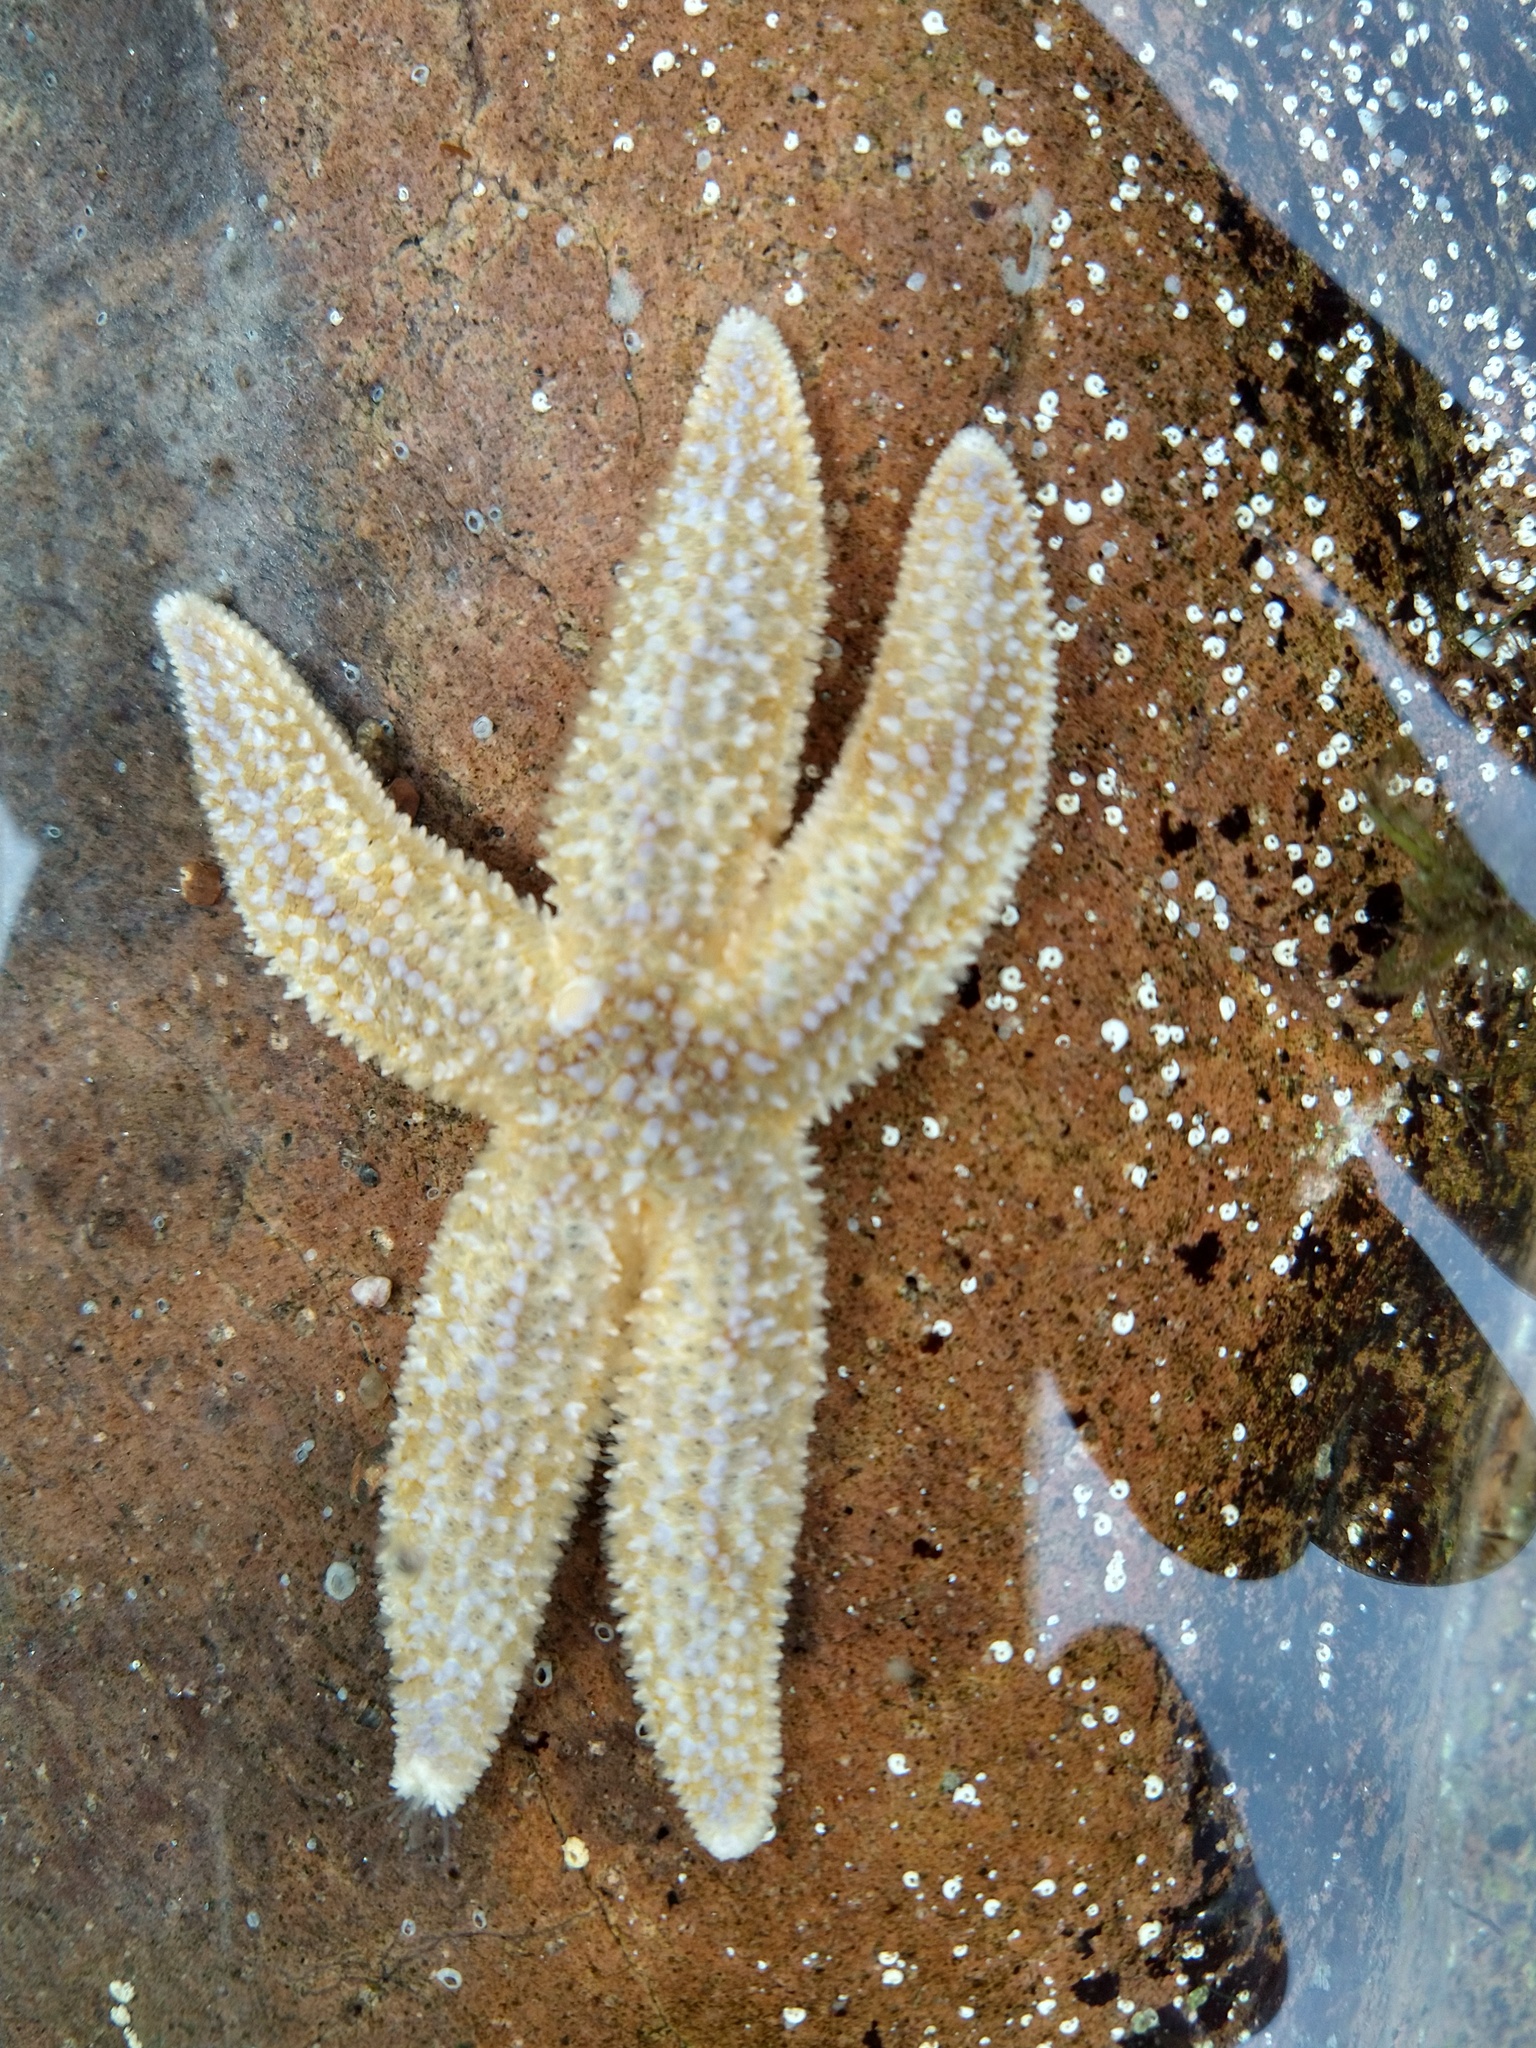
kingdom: Animalia
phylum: Echinodermata
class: Asteroidea
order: Forcipulatida
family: Asteriidae
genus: Asterias
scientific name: Asterias rubens
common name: Common starfish
